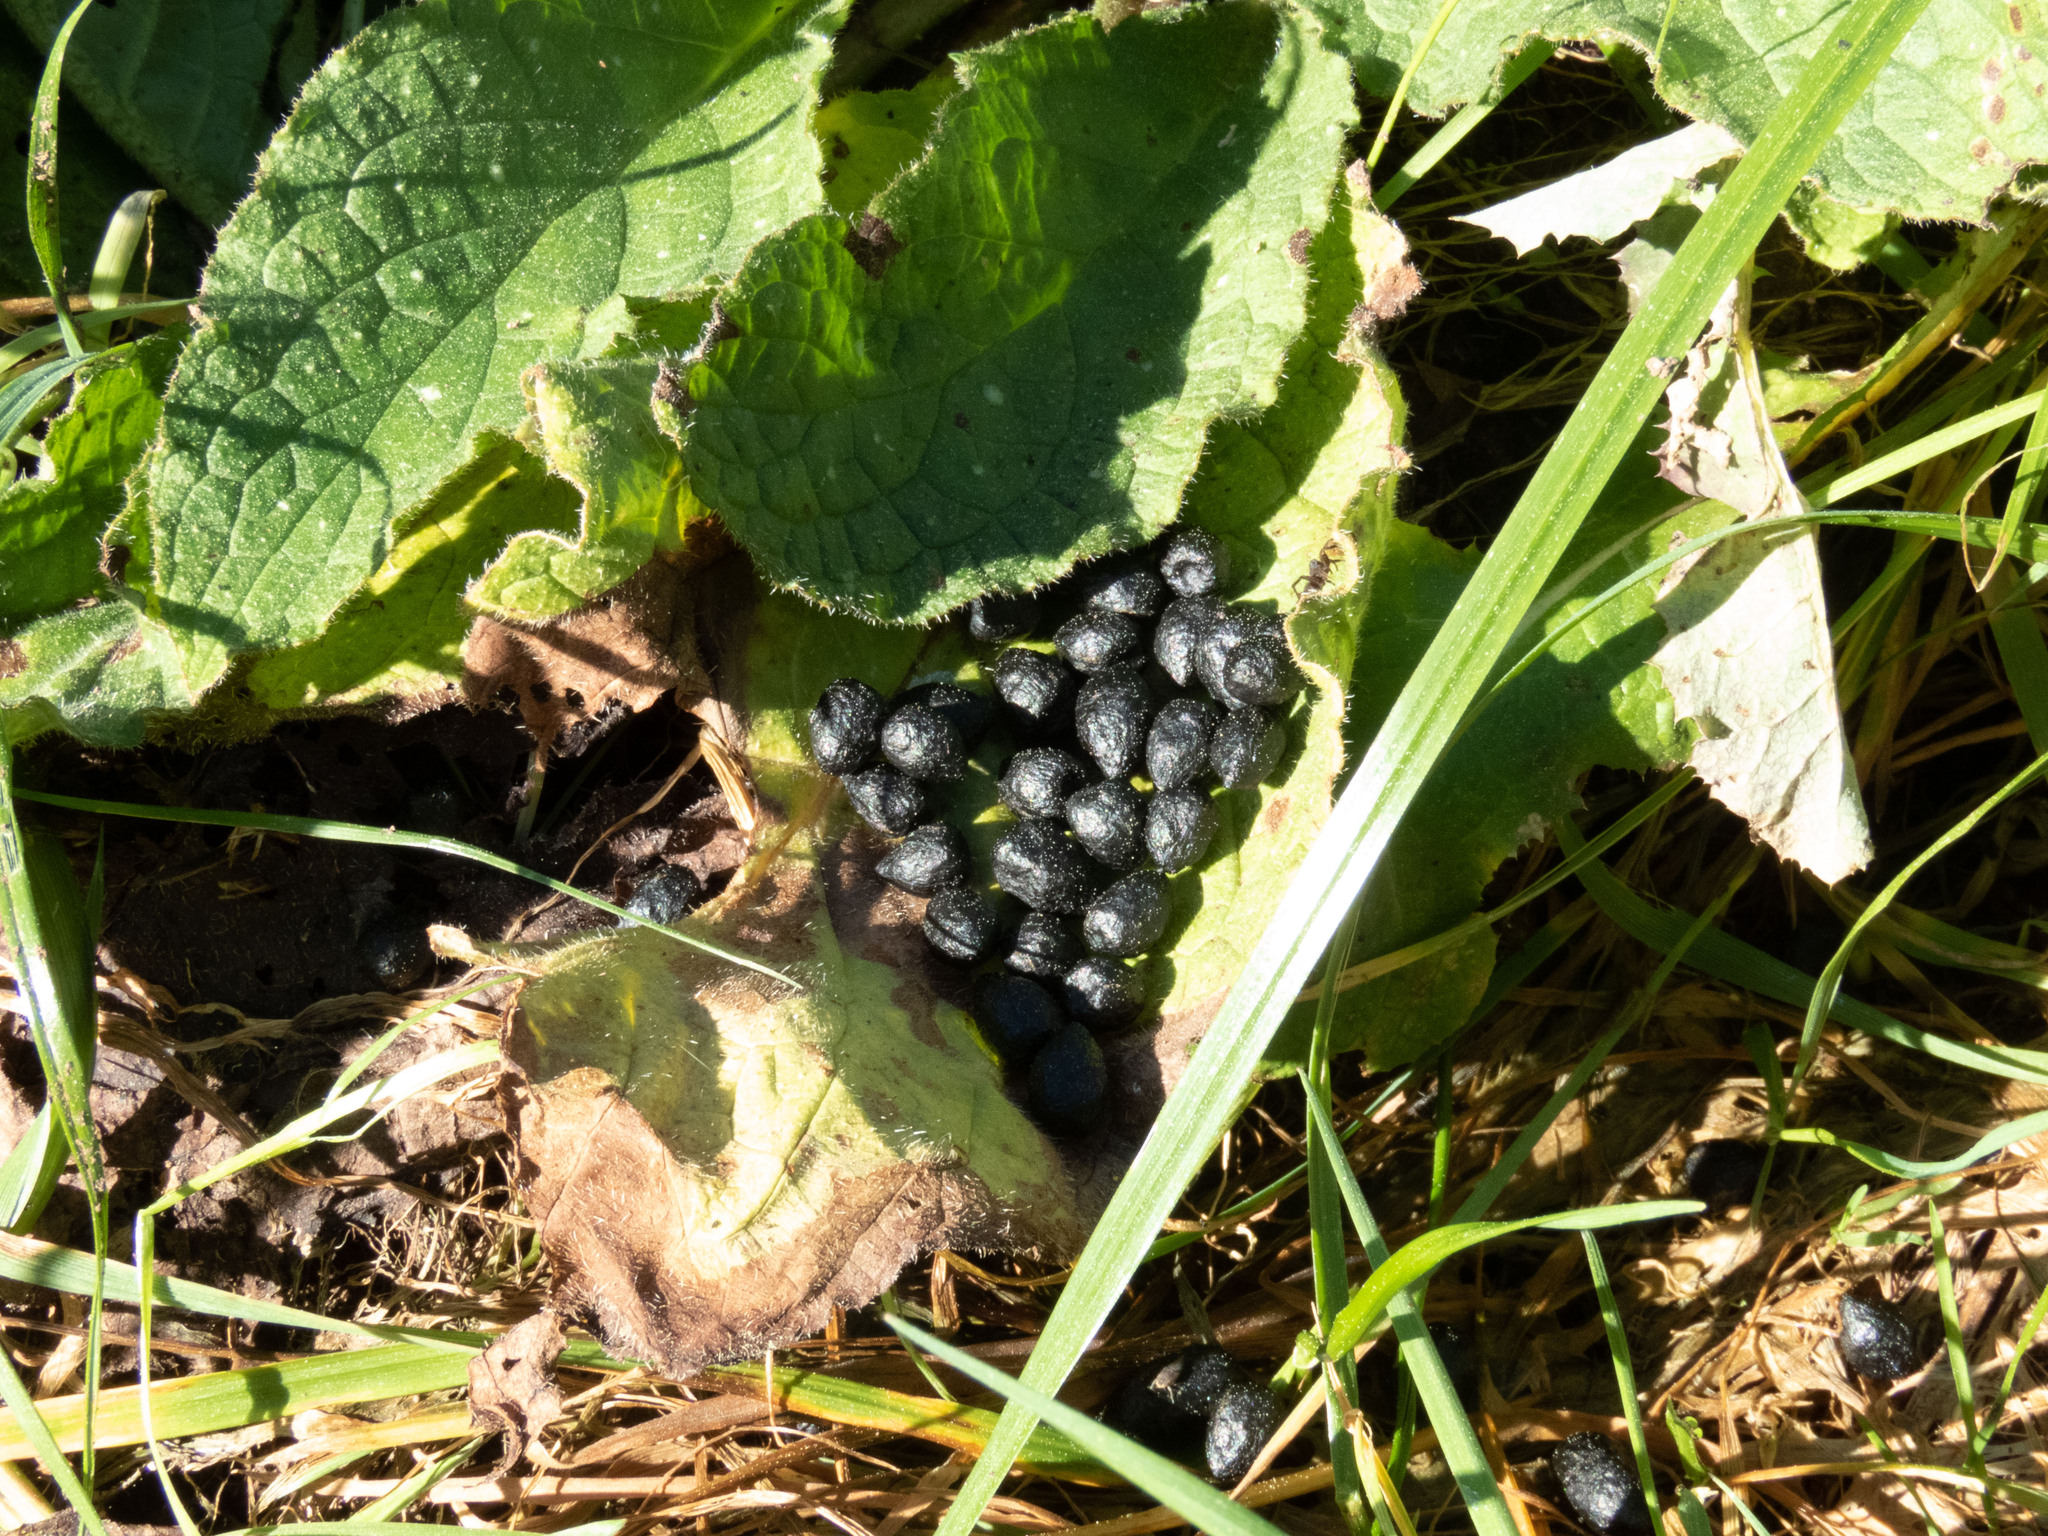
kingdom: Animalia
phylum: Chordata
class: Mammalia
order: Artiodactyla
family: Cervidae
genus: Capreolus
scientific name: Capreolus capreolus
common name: Western roe deer
